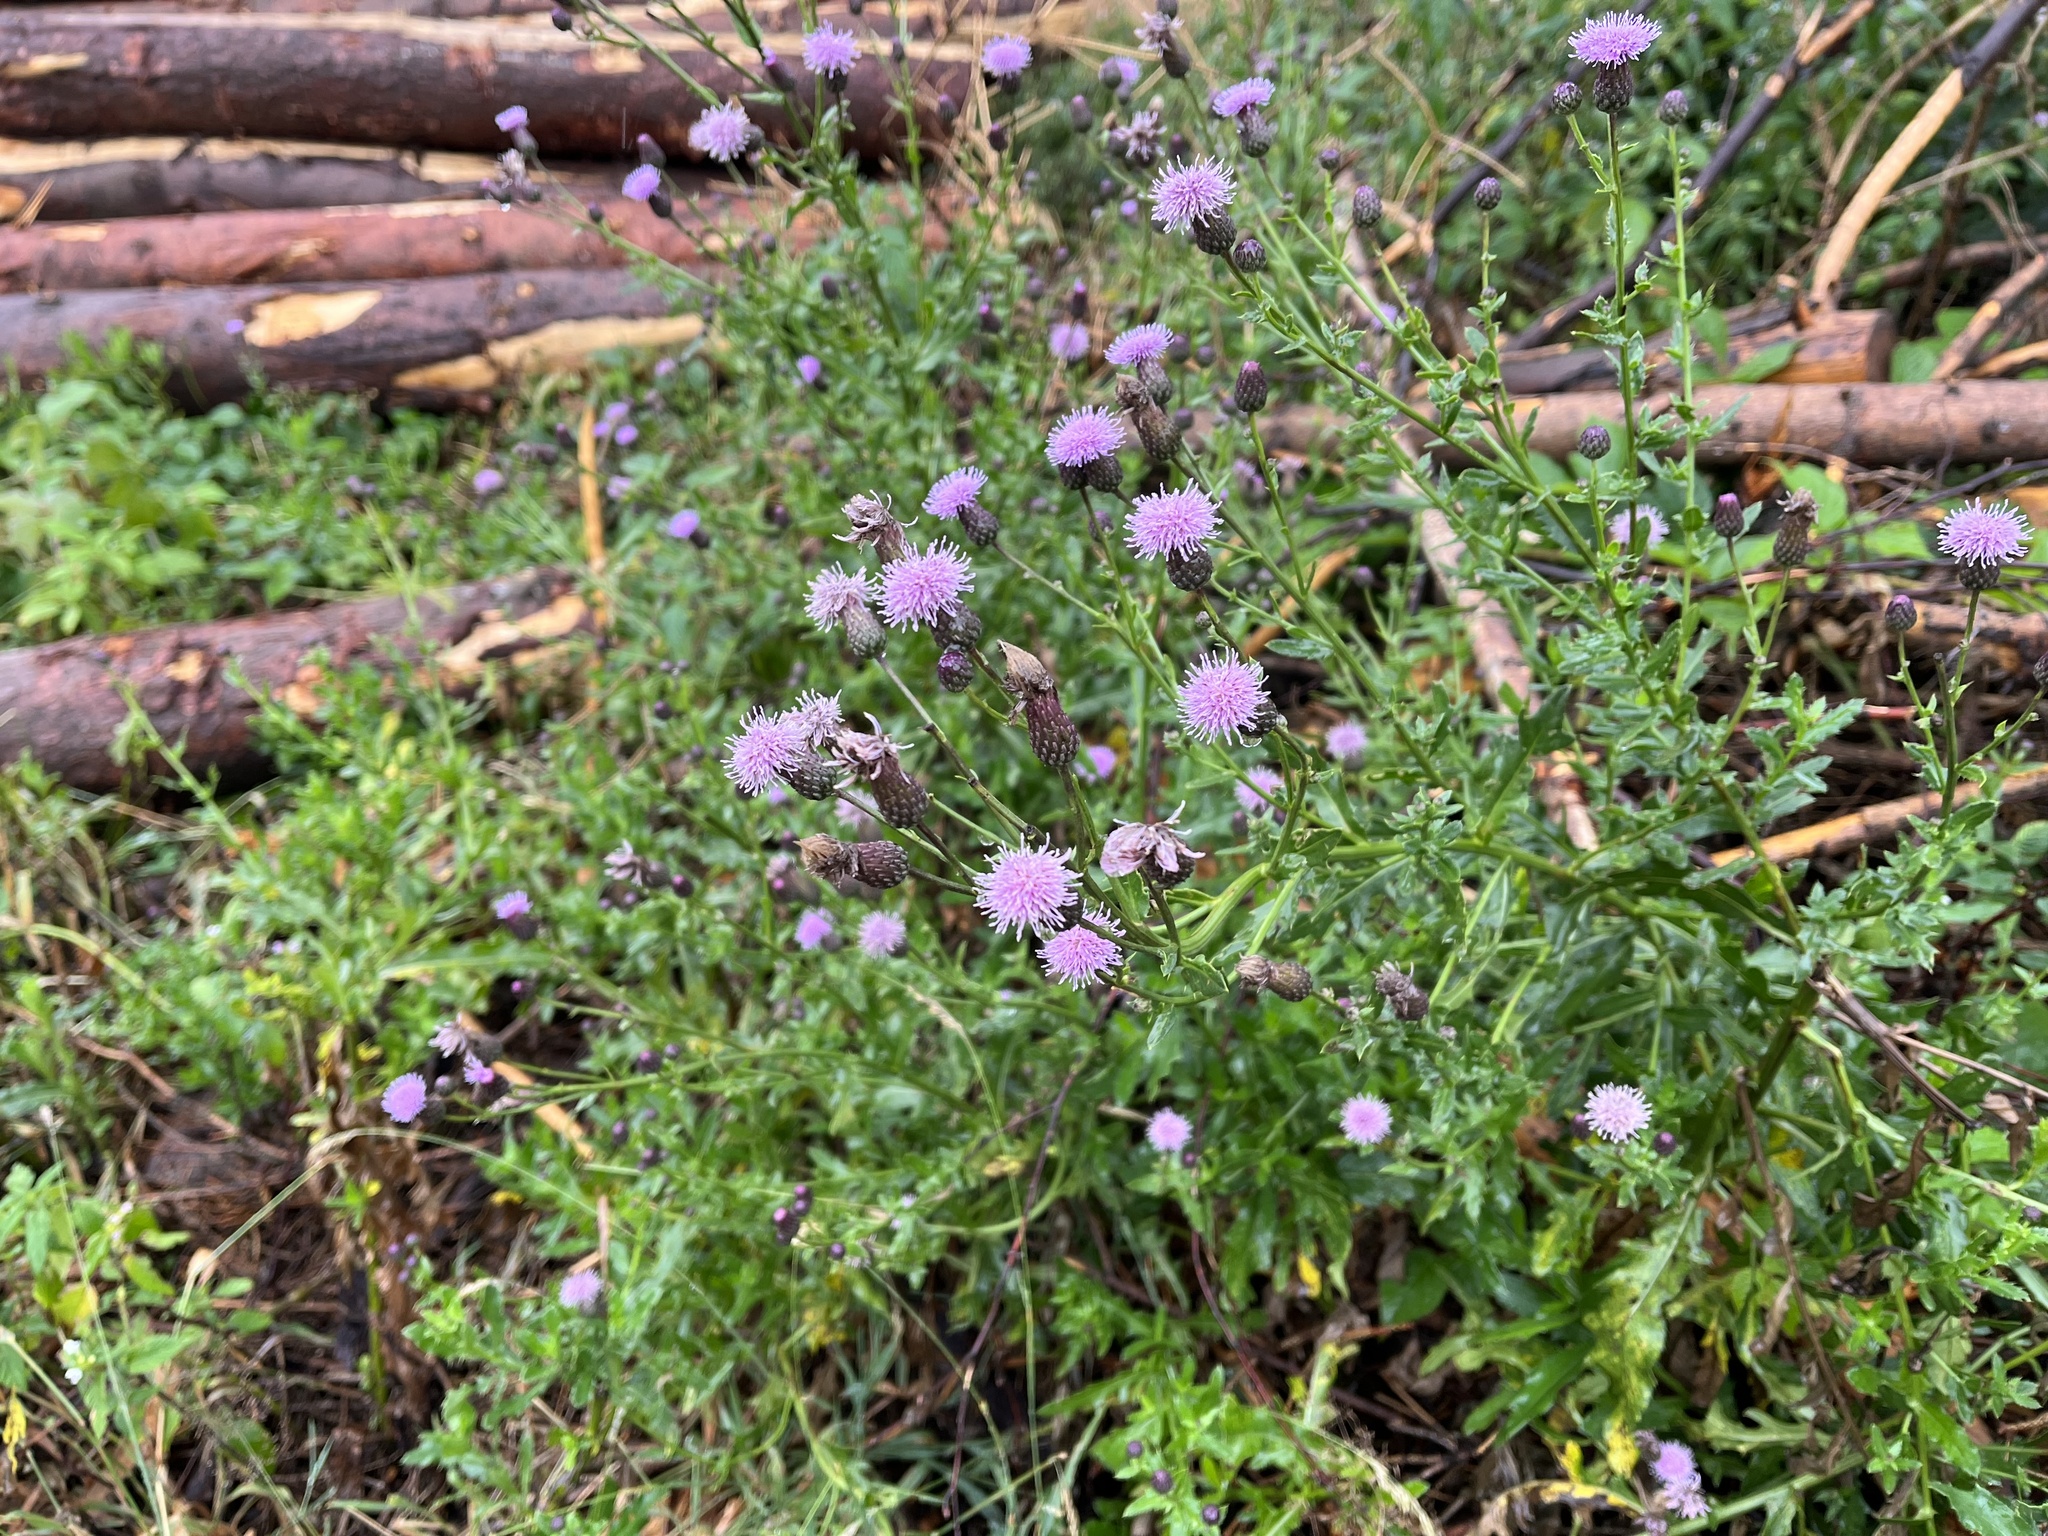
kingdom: Plantae
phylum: Tracheophyta
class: Magnoliopsida
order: Asterales
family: Asteraceae
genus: Cirsium
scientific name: Cirsium arvense
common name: Creeping thistle
